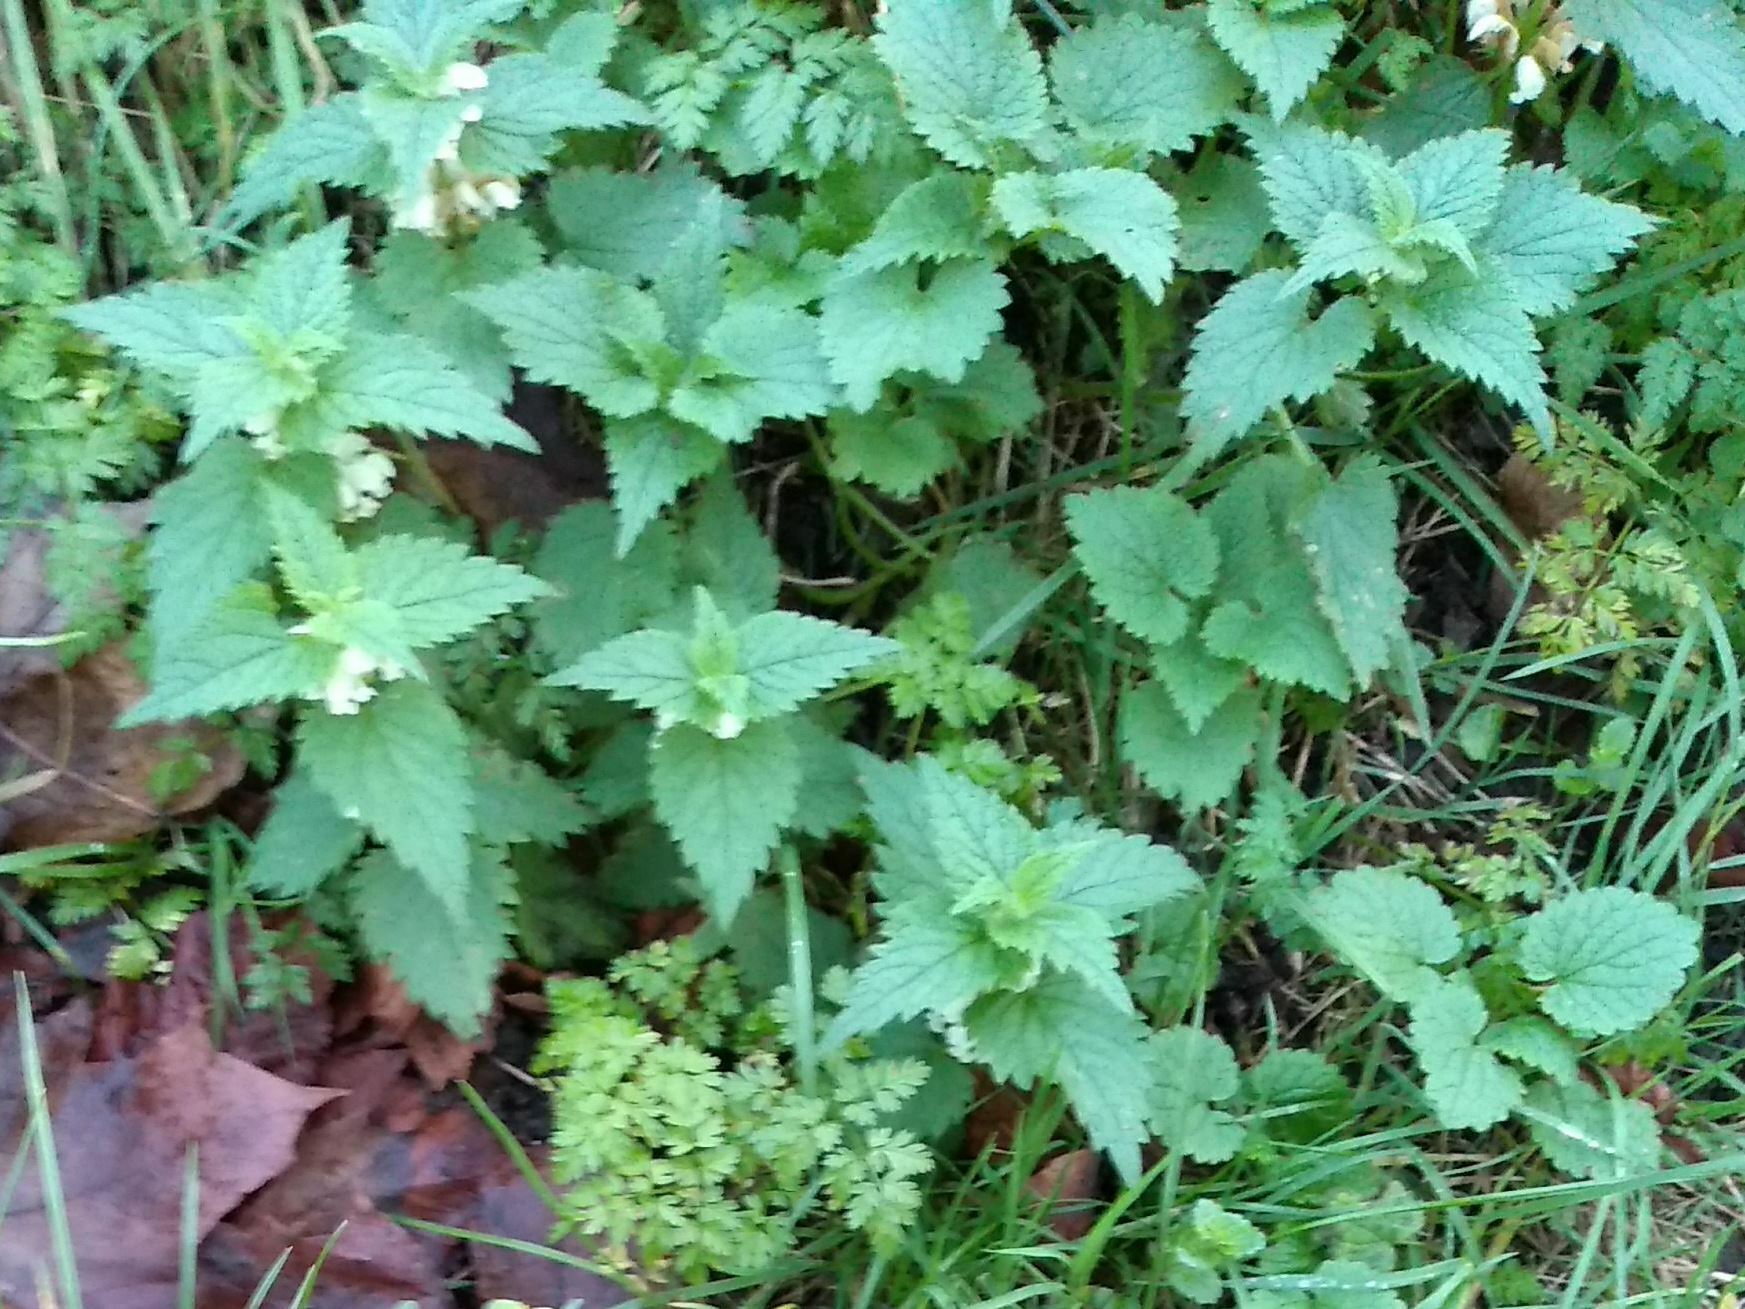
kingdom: Plantae
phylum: Tracheophyta
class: Magnoliopsida
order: Lamiales
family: Lamiaceae
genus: Lamium
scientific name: Lamium album
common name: White dead-nettle
